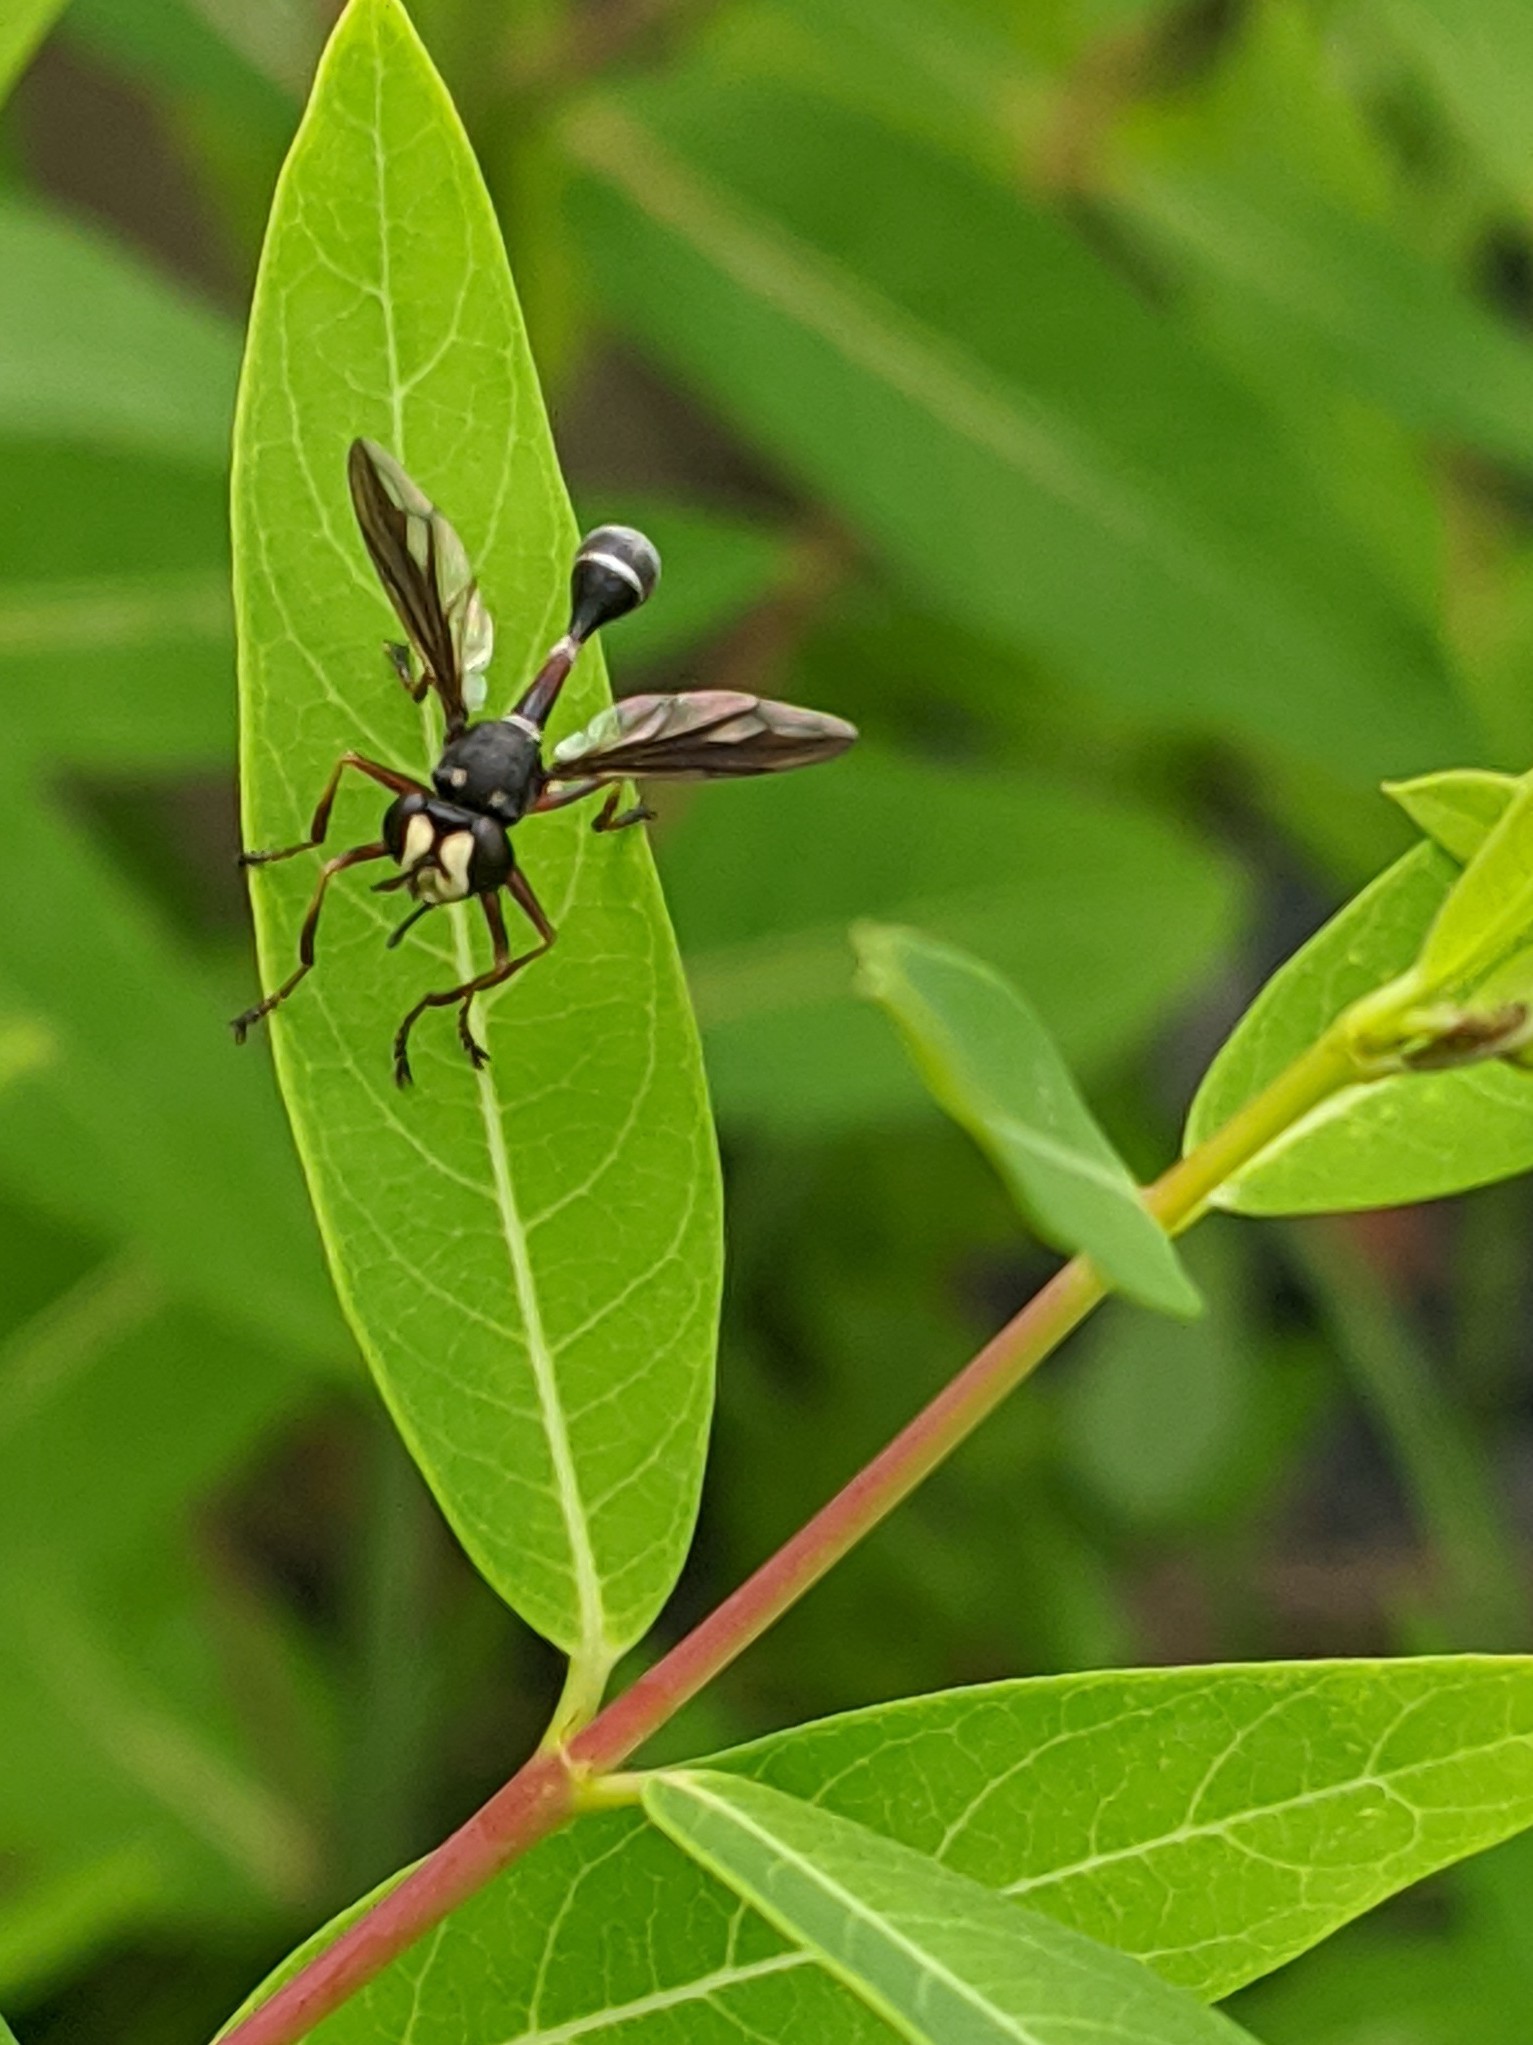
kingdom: Animalia
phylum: Arthropoda
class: Insecta
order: Diptera
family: Conopidae
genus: Physocephala
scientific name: Physocephala furcillata
